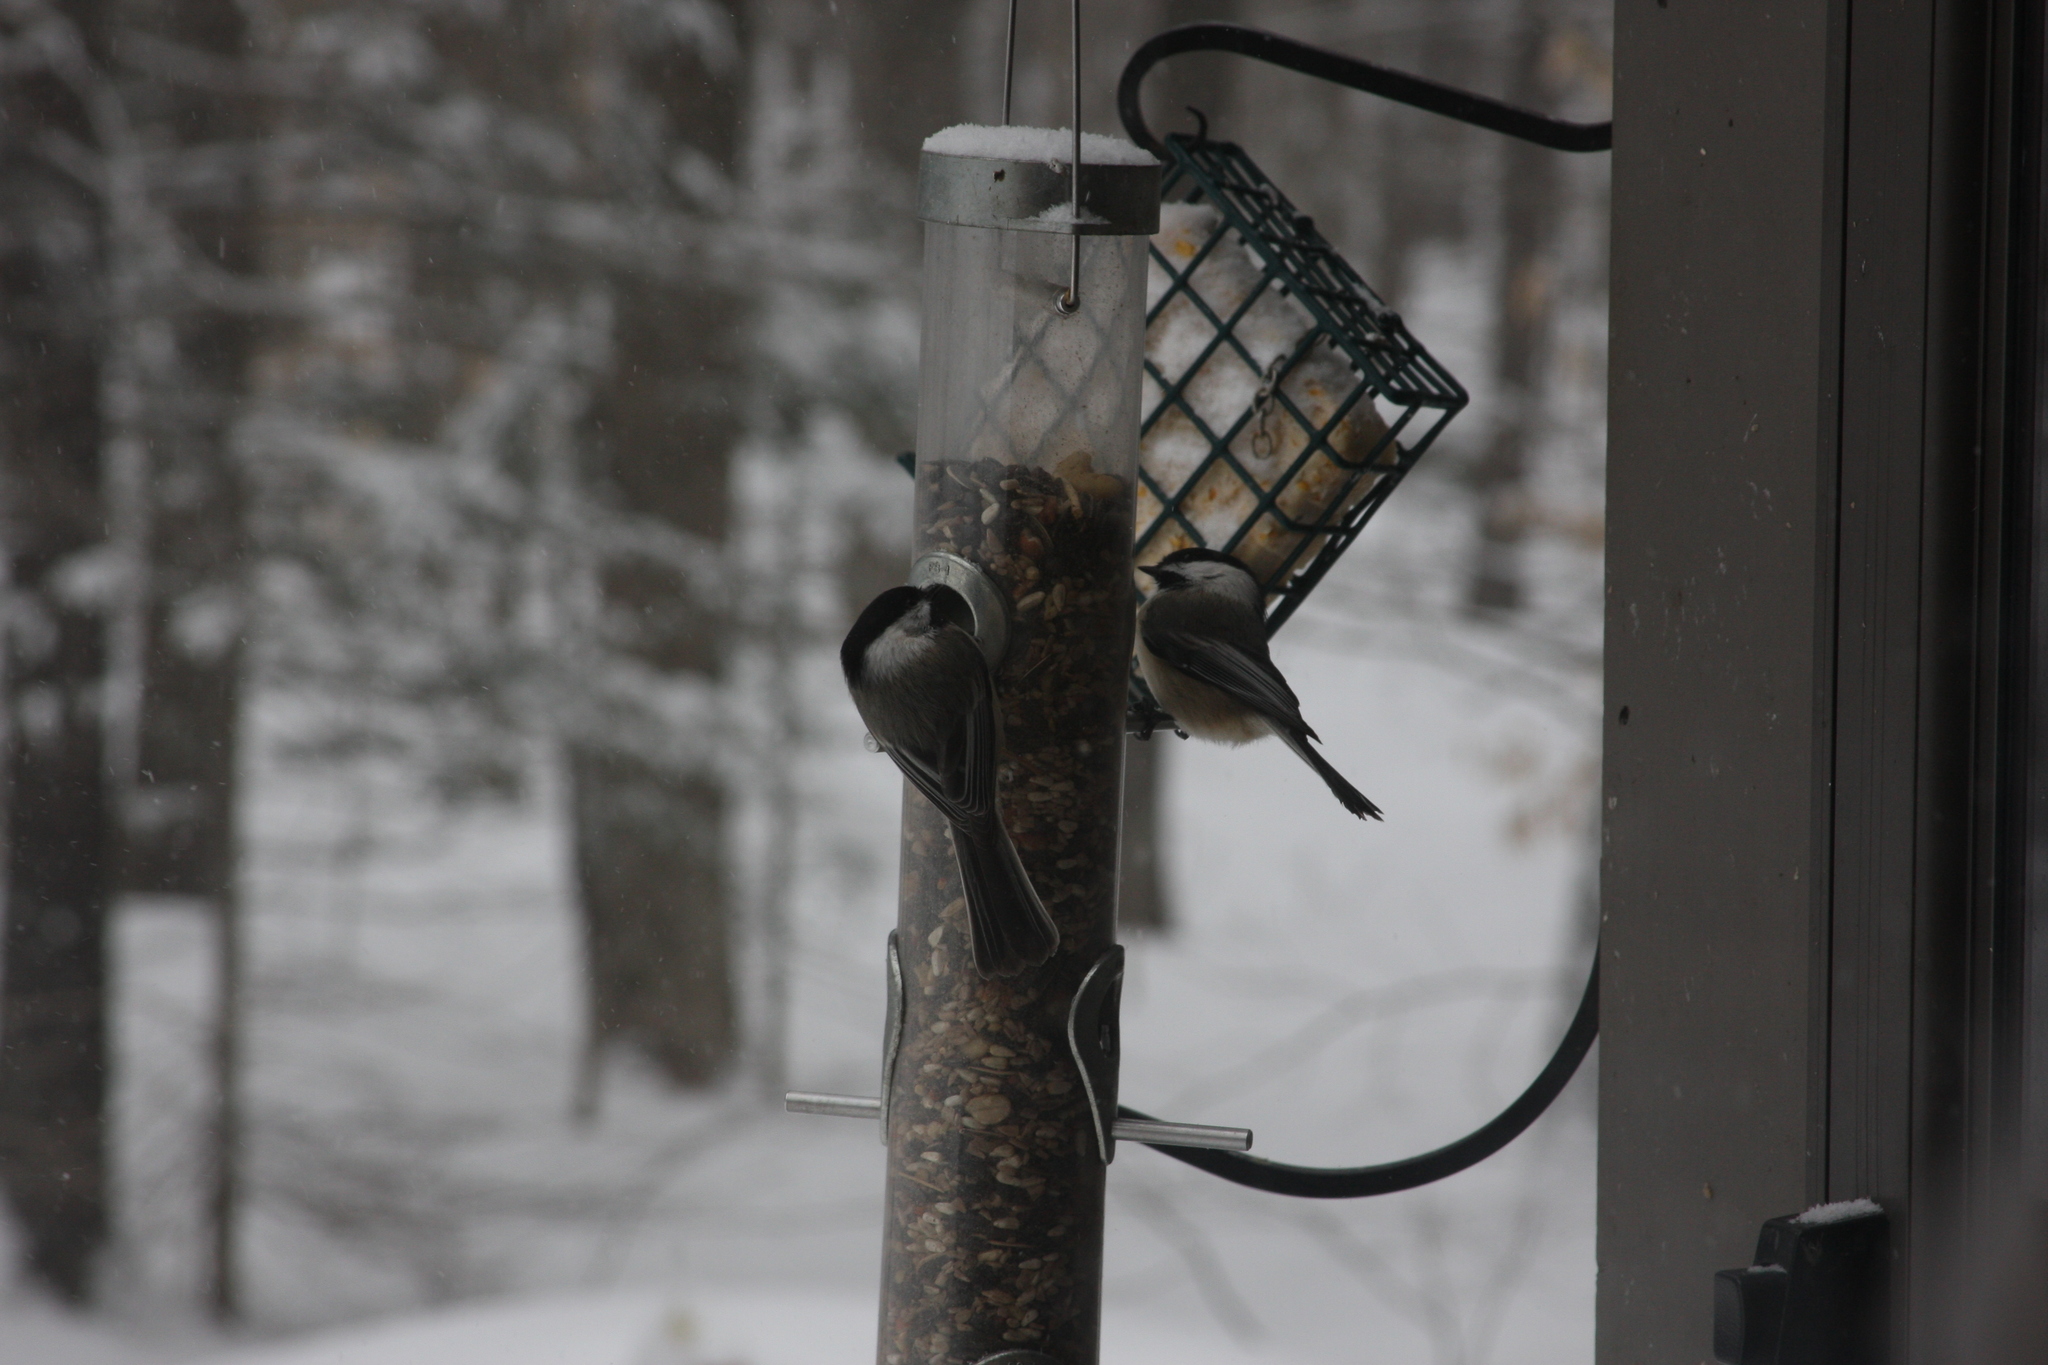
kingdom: Animalia
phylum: Chordata
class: Aves
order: Passeriformes
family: Paridae
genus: Poecile
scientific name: Poecile atricapillus
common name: Black-capped chickadee
